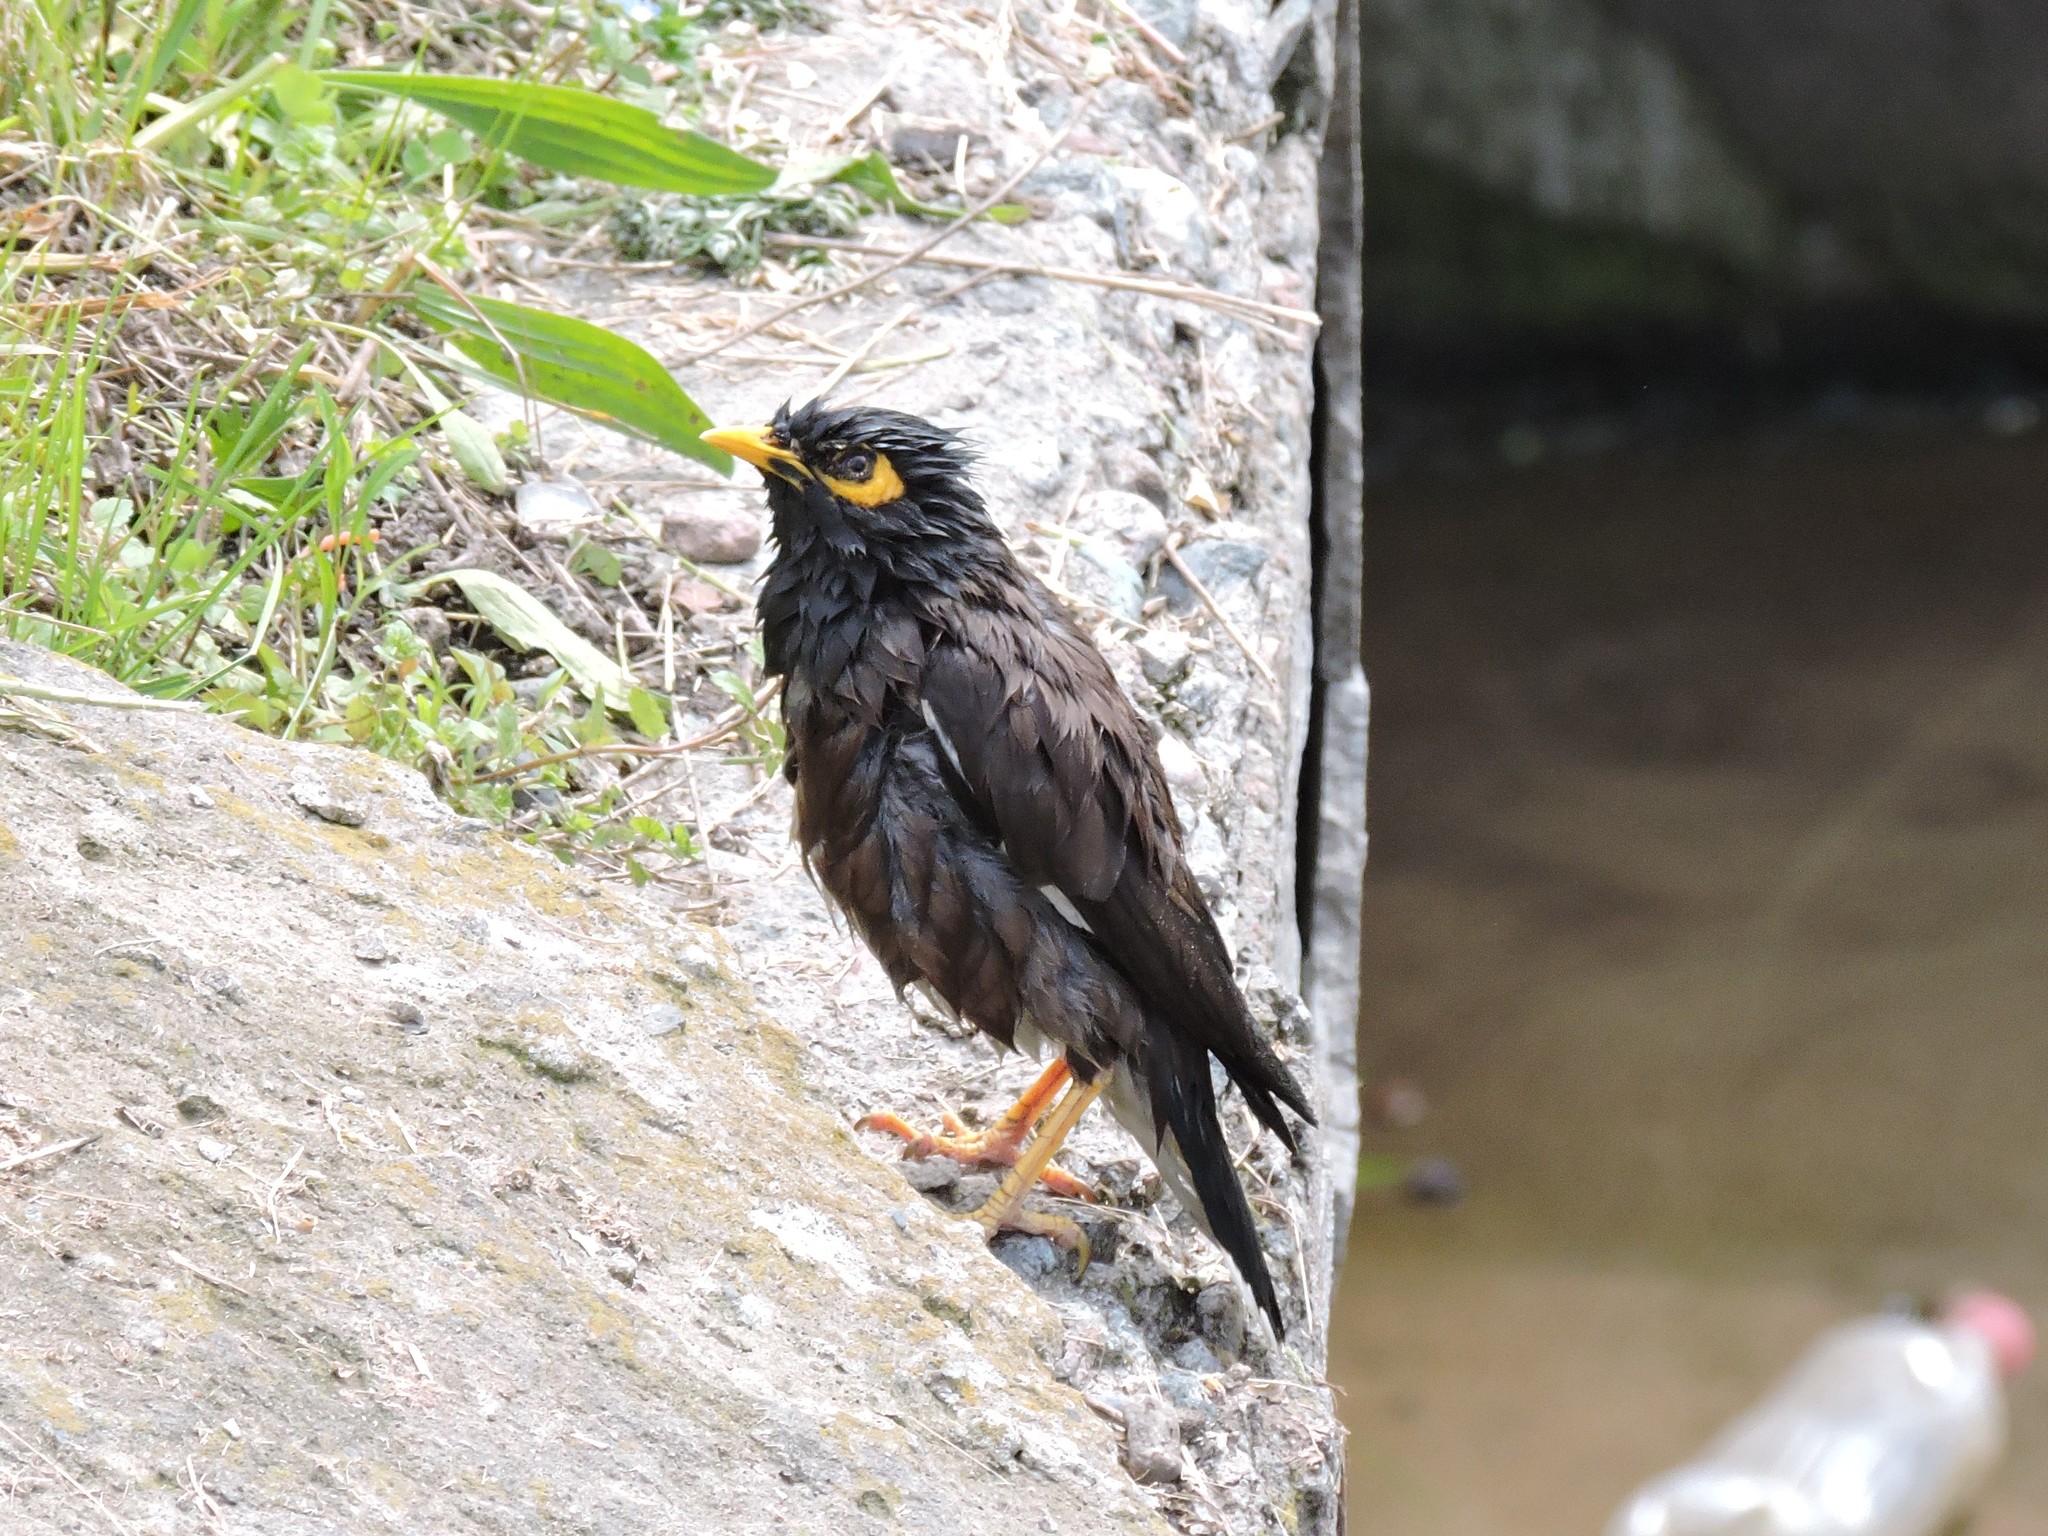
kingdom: Animalia
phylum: Chordata
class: Aves
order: Passeriformes
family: Sturnidae
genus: Acridotheres
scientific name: Acridotheres tristis
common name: Common myna
